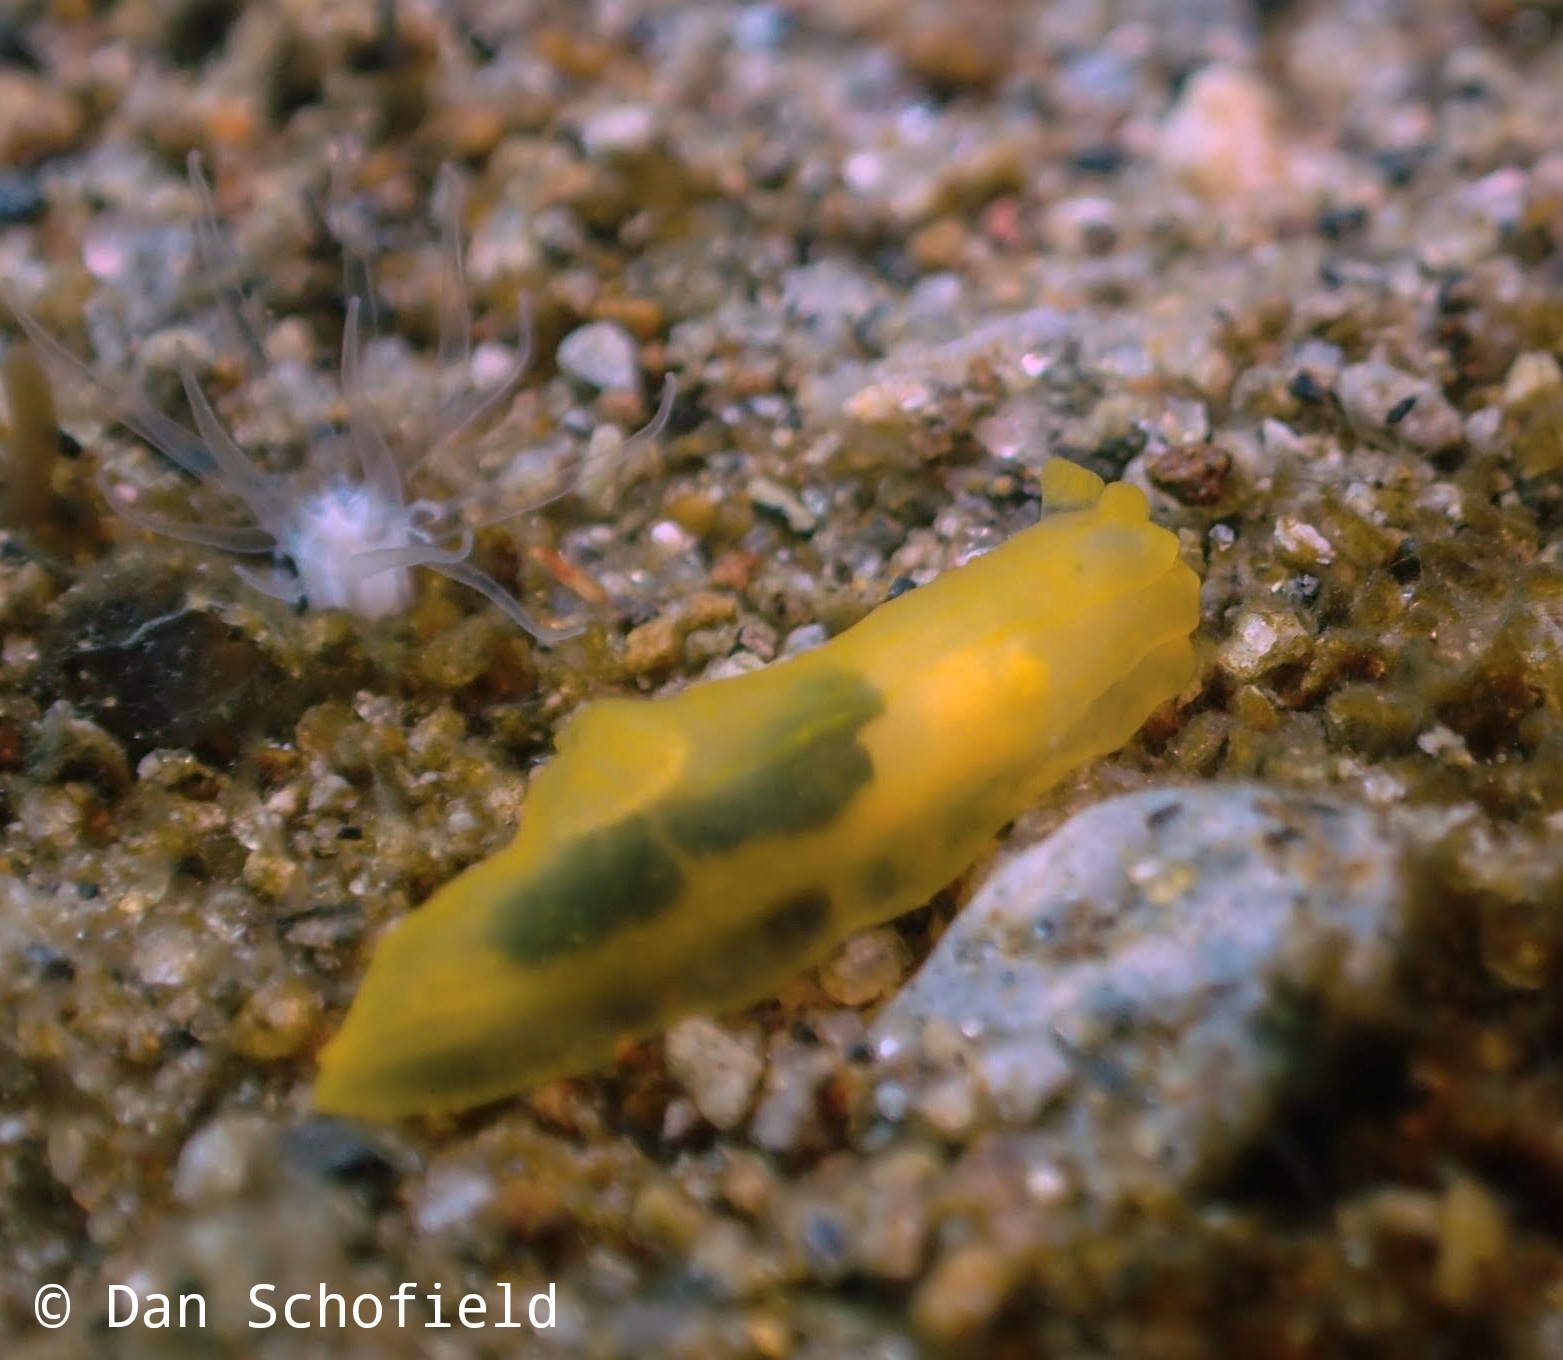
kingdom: Animalia
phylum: Mollusca
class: Gastropoda
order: Nudibranchia
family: Polyceridae
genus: Gymnodoris
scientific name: Gymnodoris crocea
